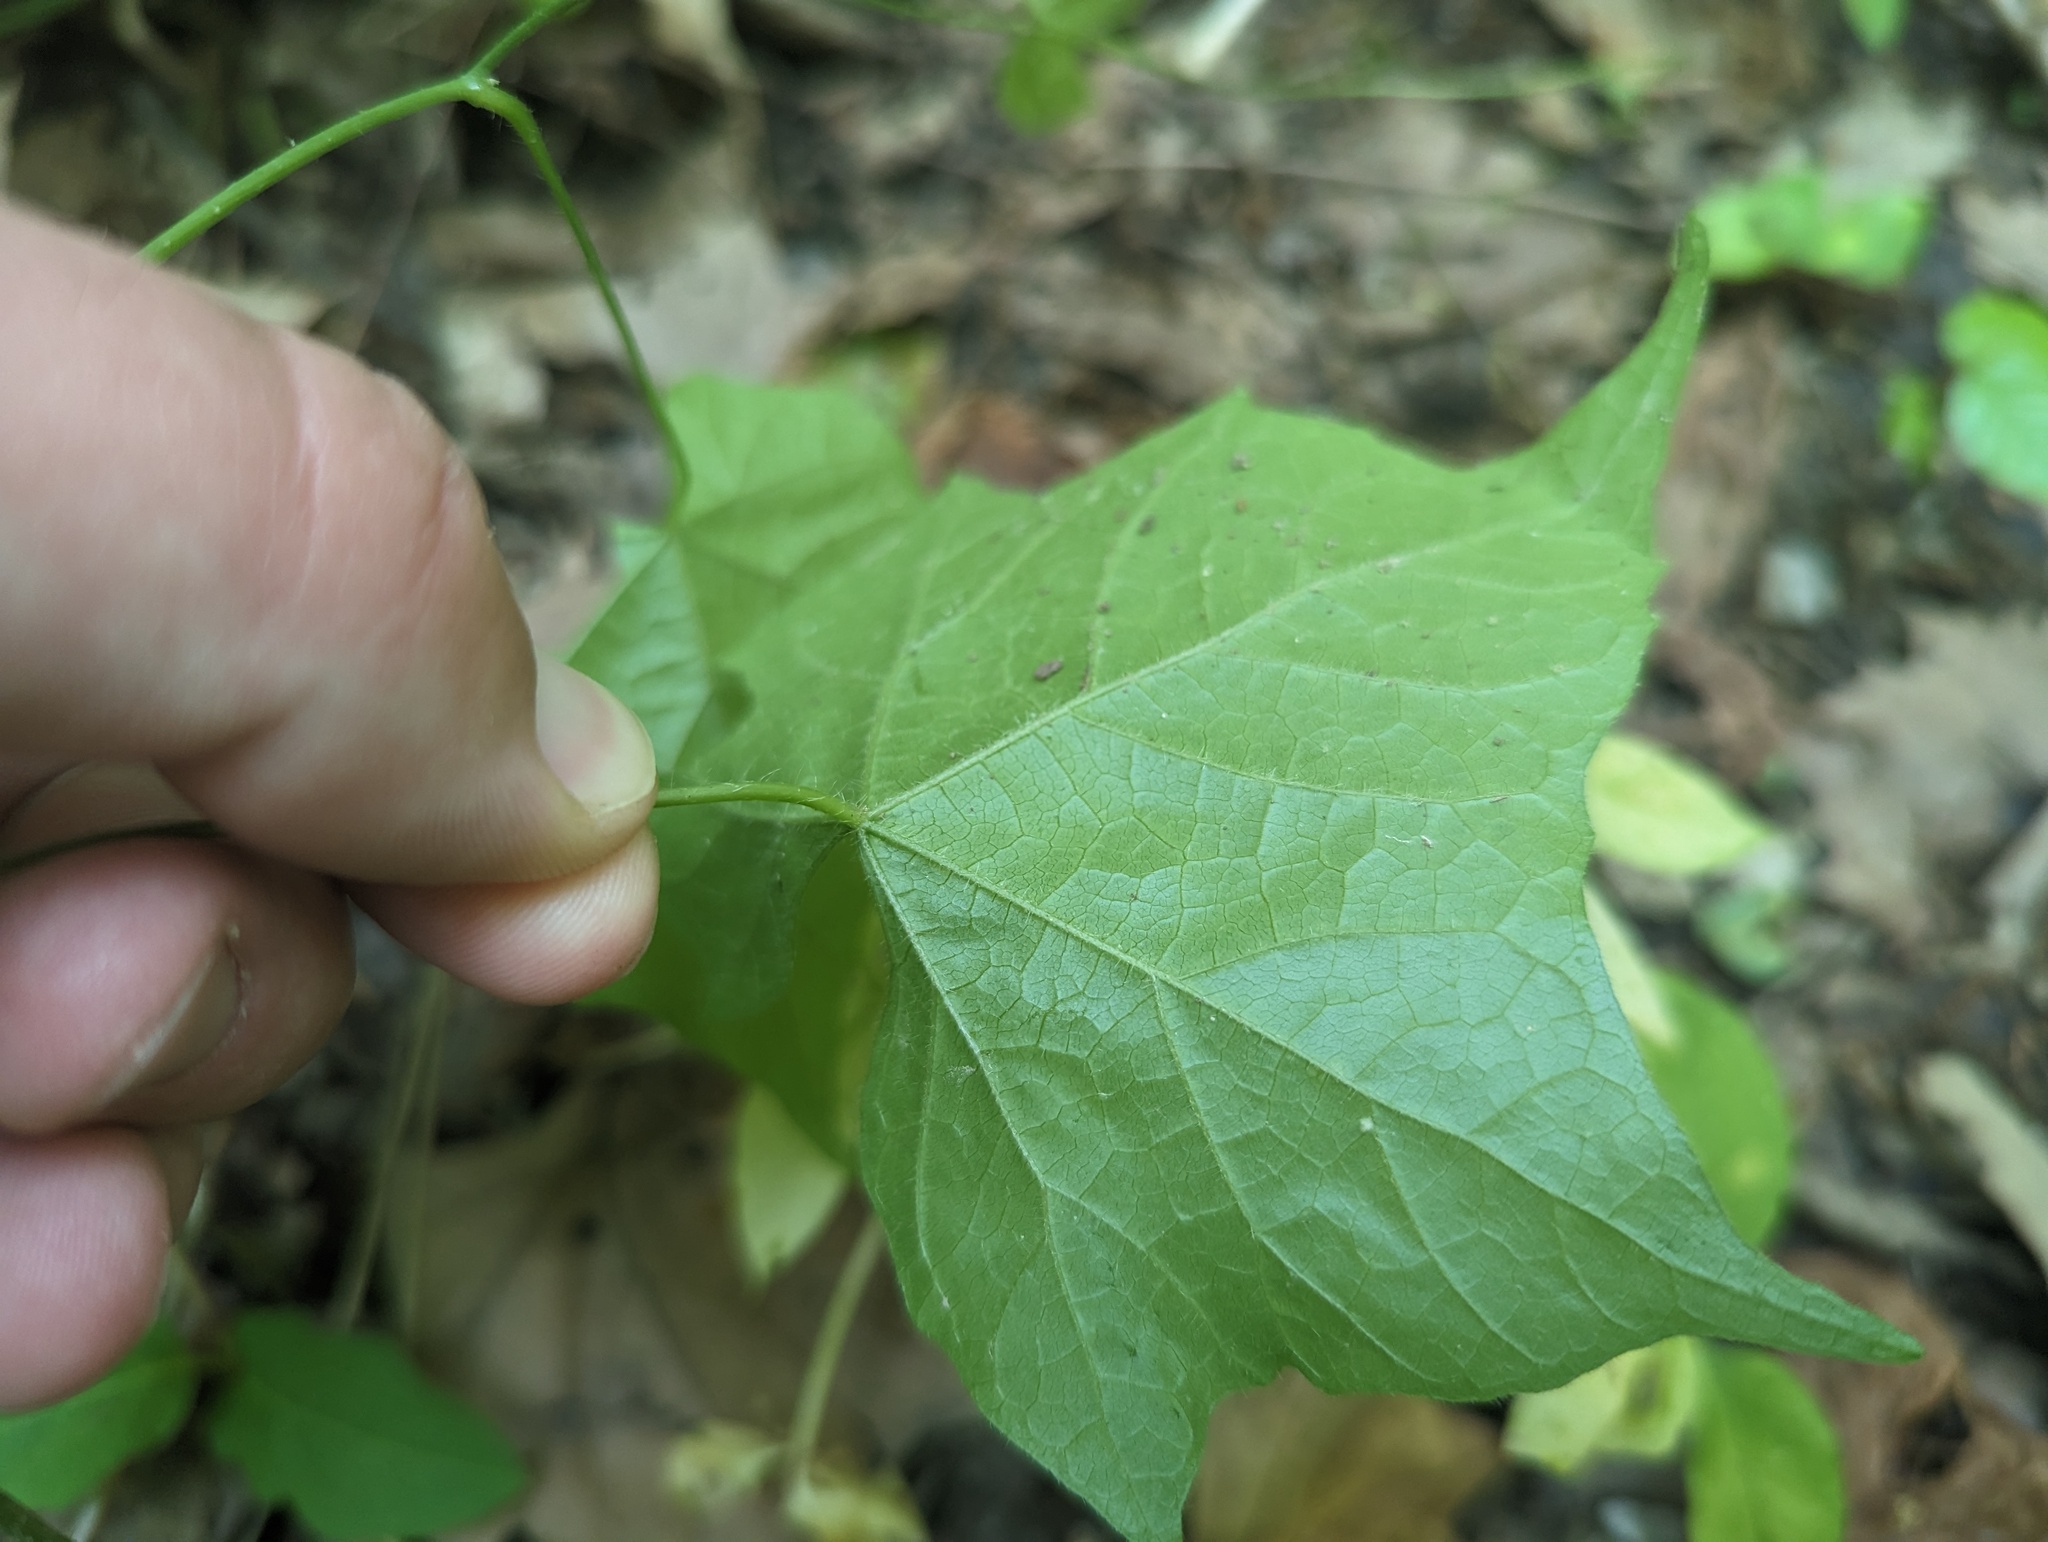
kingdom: Plantae
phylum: Tracheophyta
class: Magnoliopsida
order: Cucurbitales
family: Cucurbitaceae
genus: Sicyos
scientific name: Sicyos angulatus
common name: Angled burr cucumber
